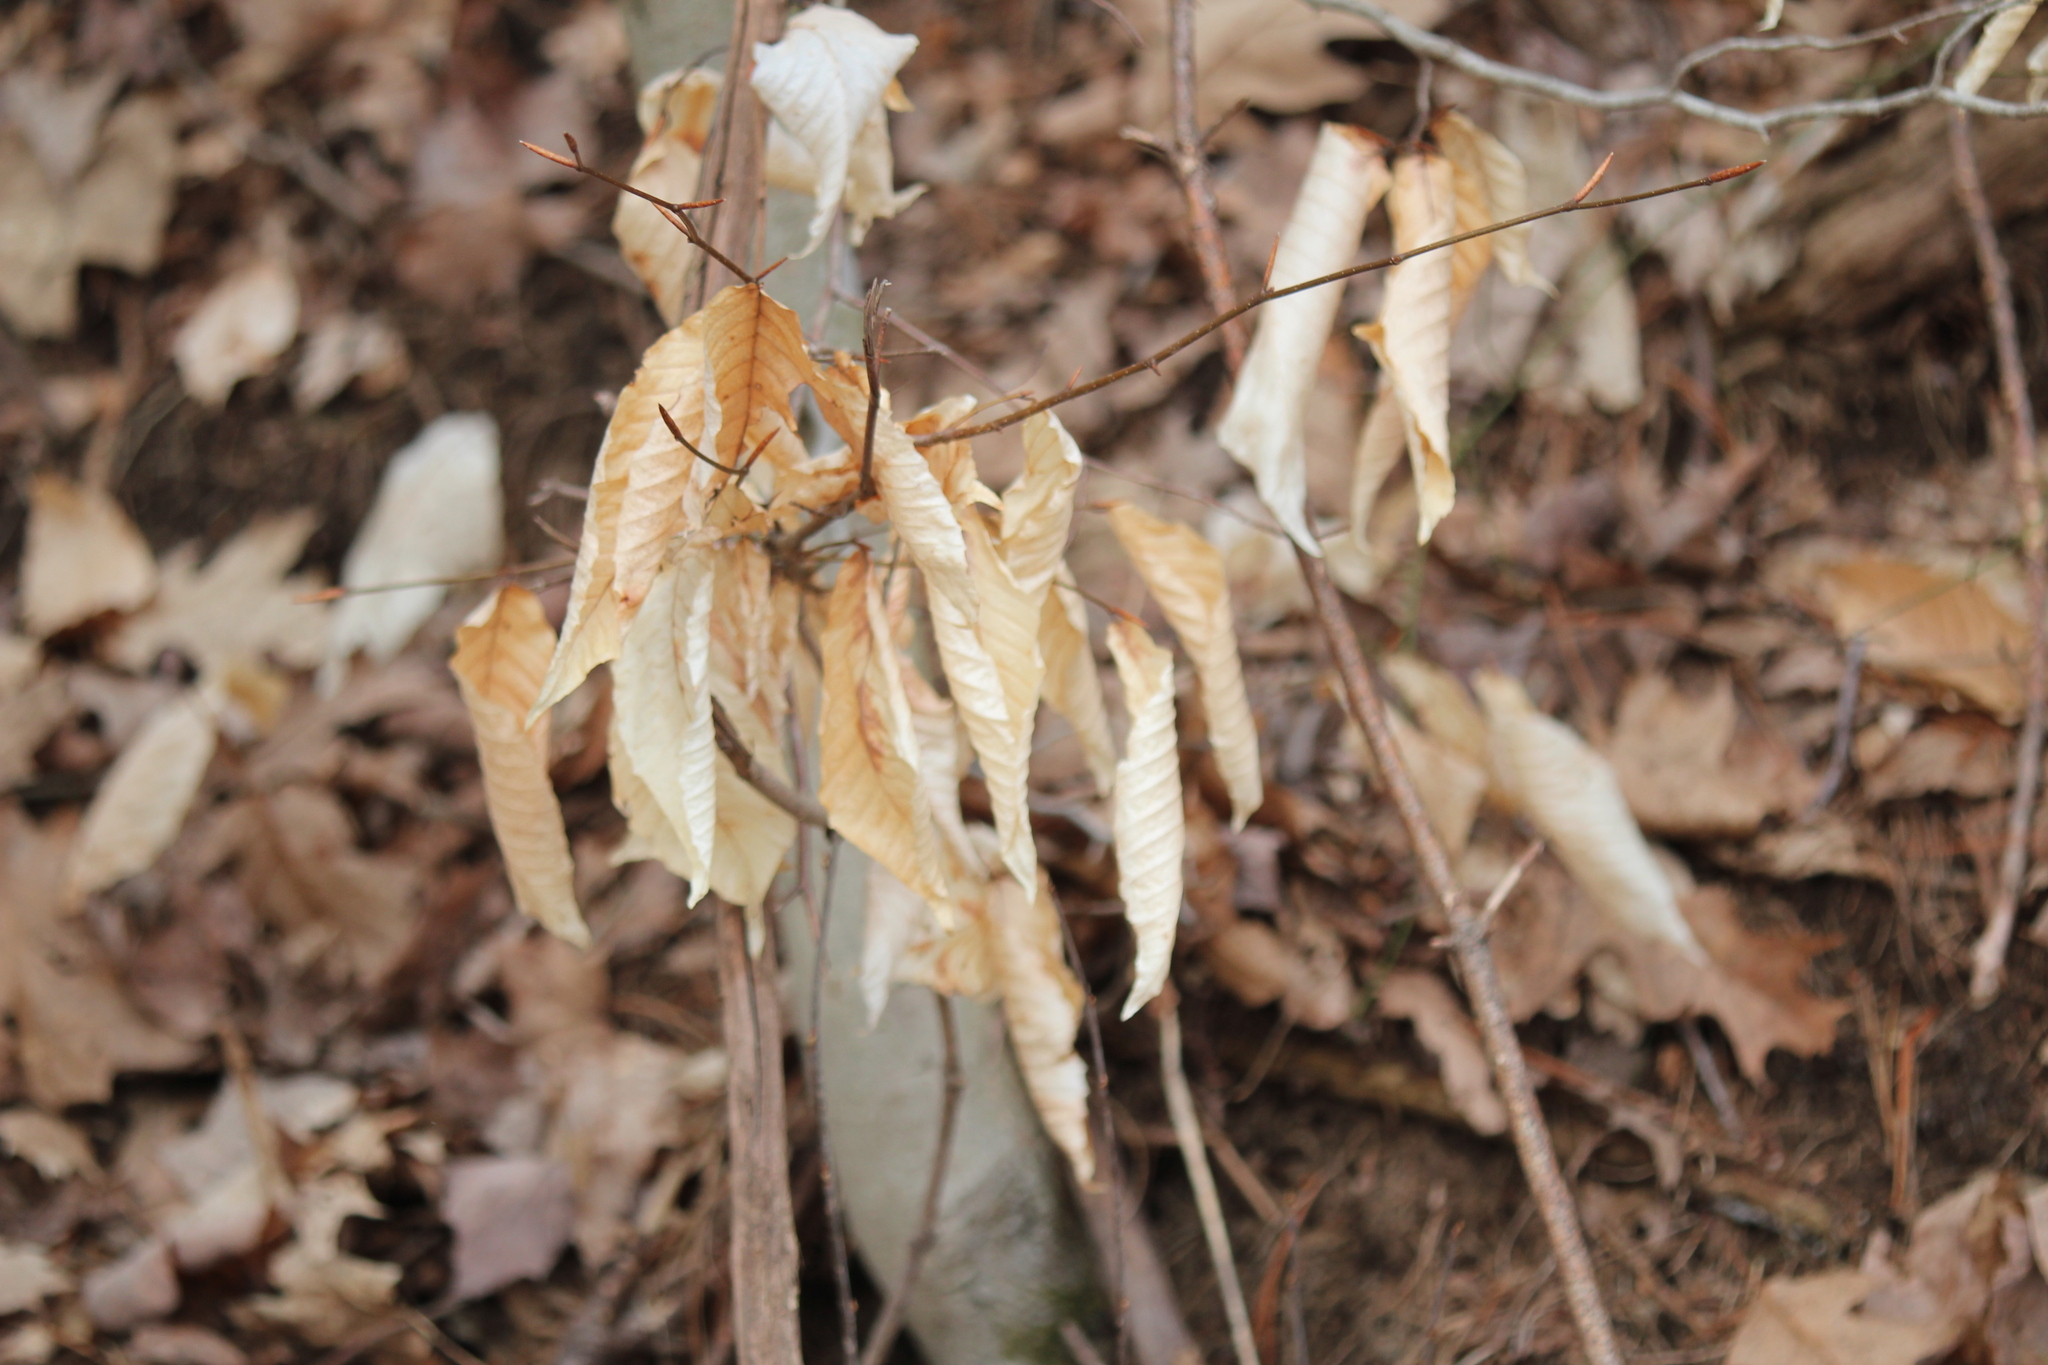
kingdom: Plantae
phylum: Tracheophyta
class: Magnoliopsida
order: Fagales
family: Fagaceae
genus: Fagus
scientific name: Fagus grandifolia
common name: American beech
